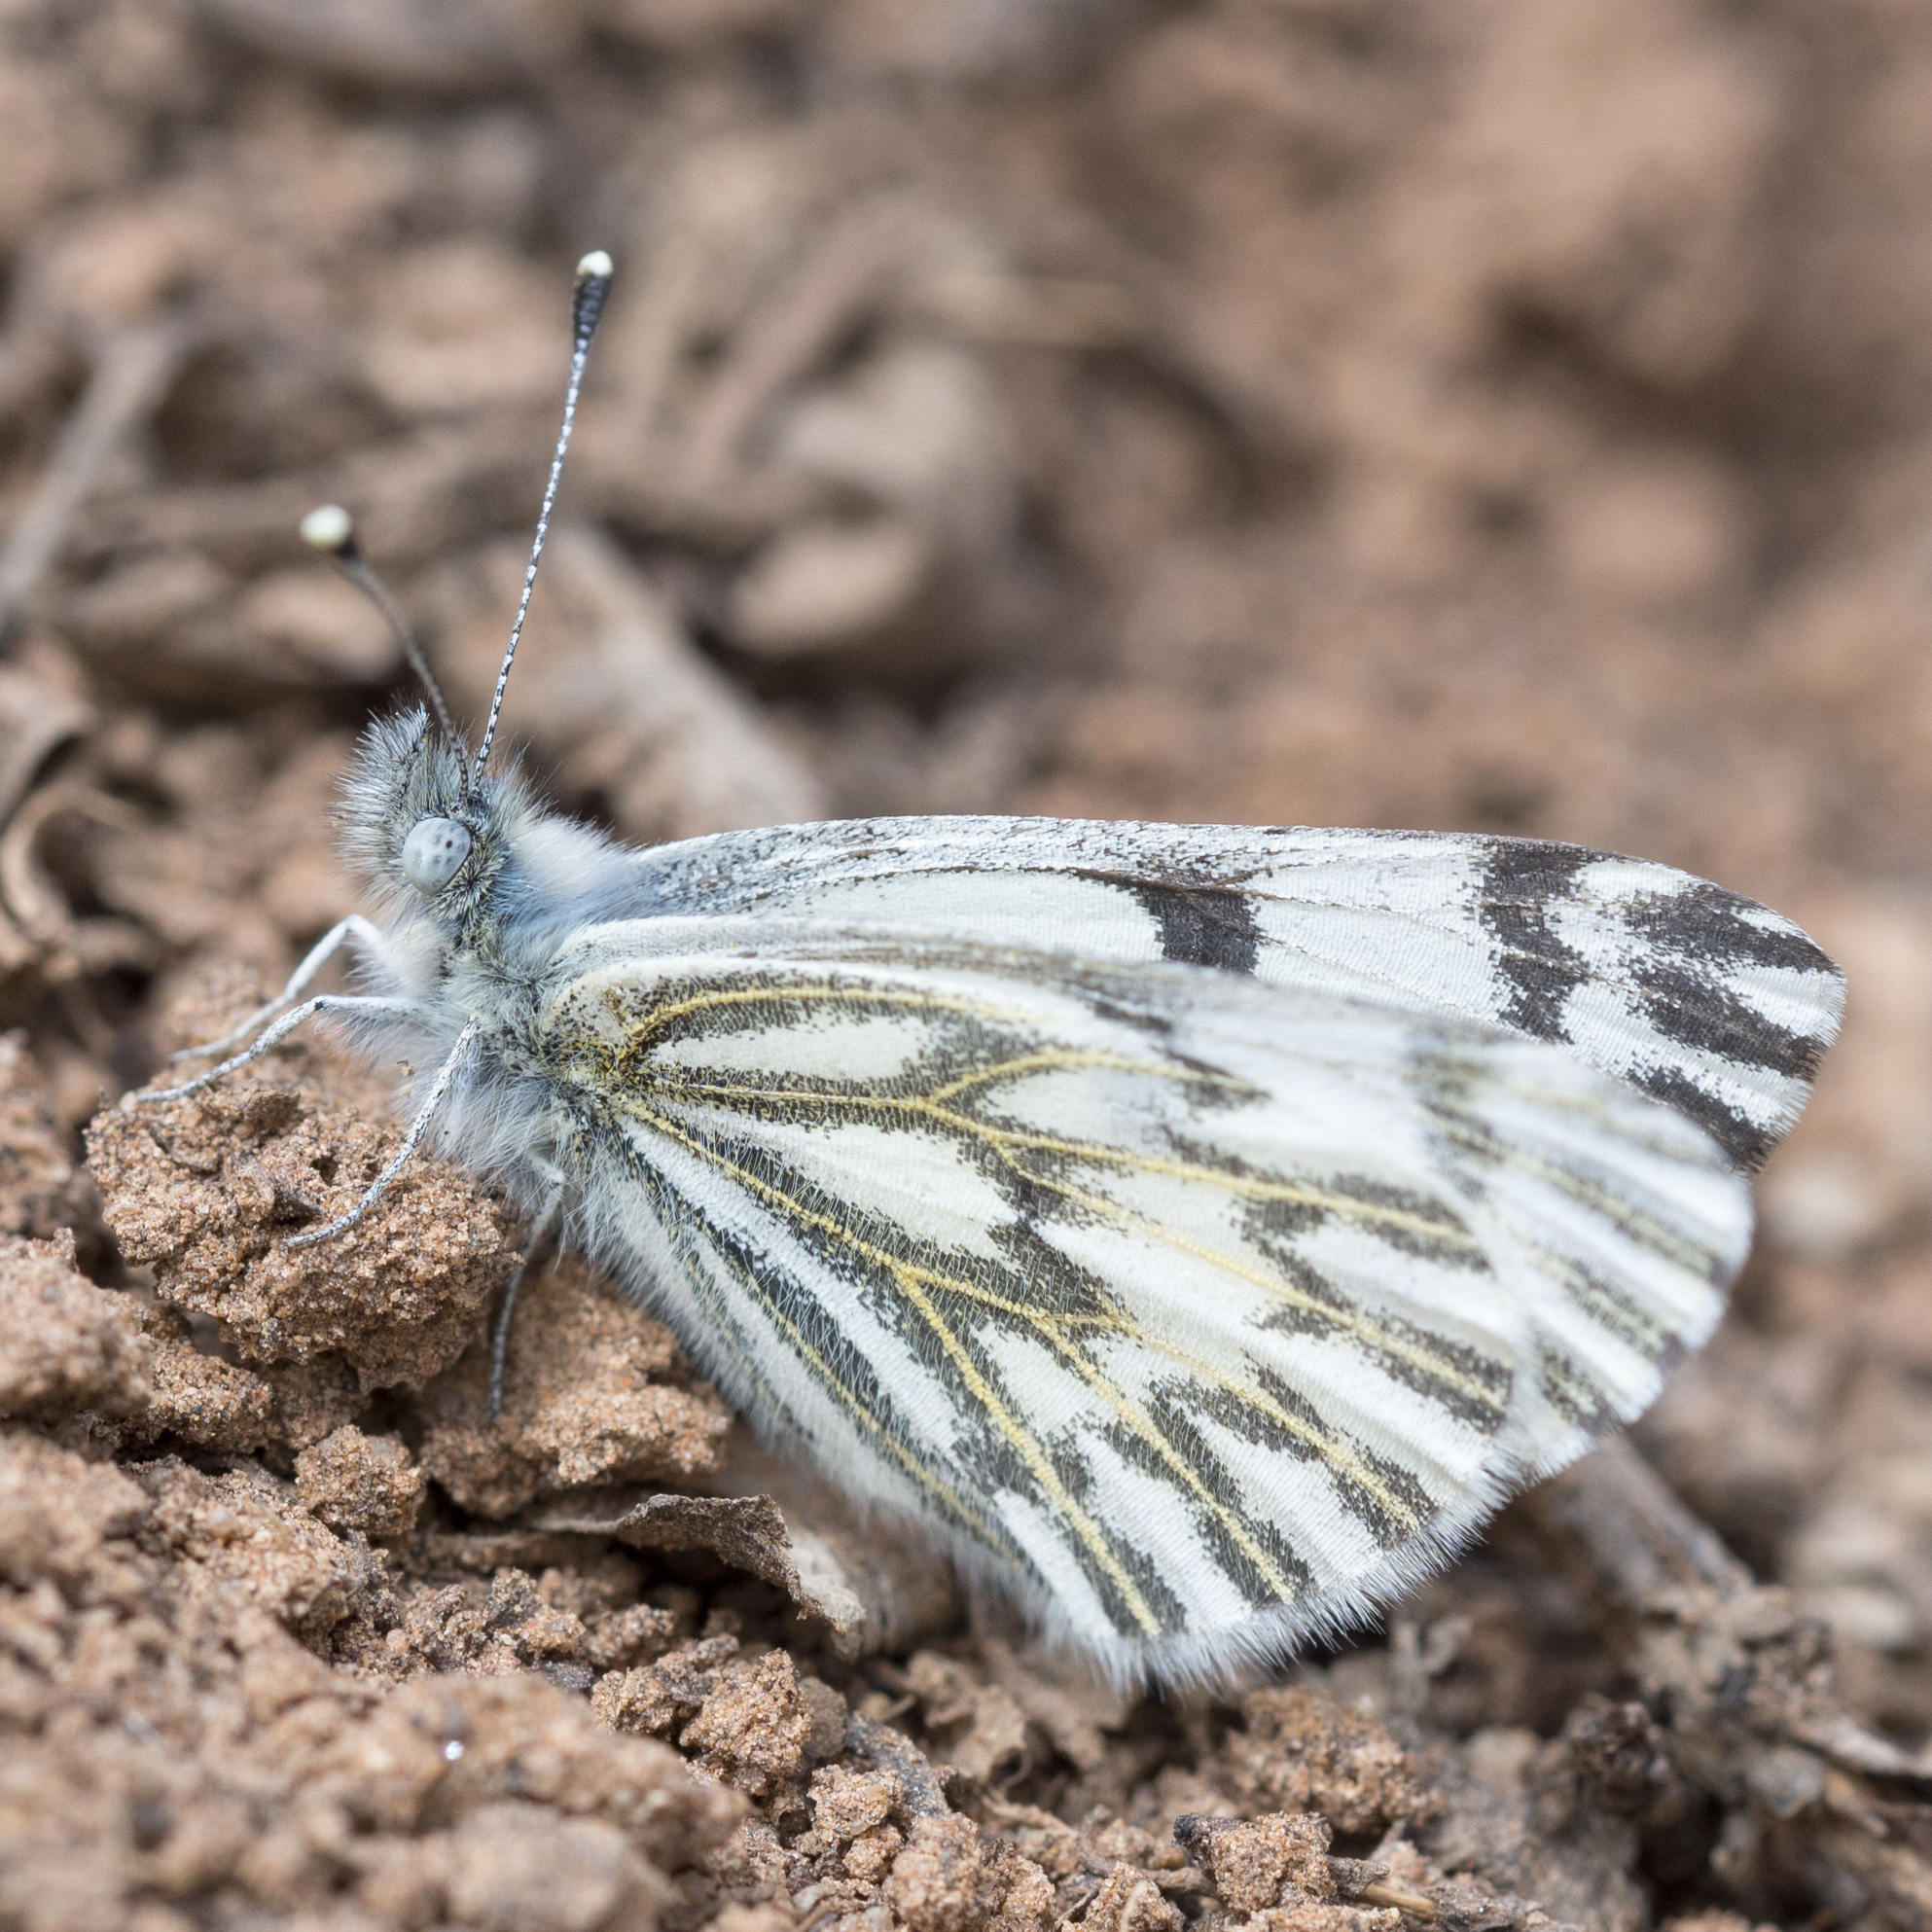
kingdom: Animalia
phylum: Arthropoda
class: Insecta
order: Lepidoptera
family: Pieridae
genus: Pontia
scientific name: Pontia sisymbrii
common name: California white
